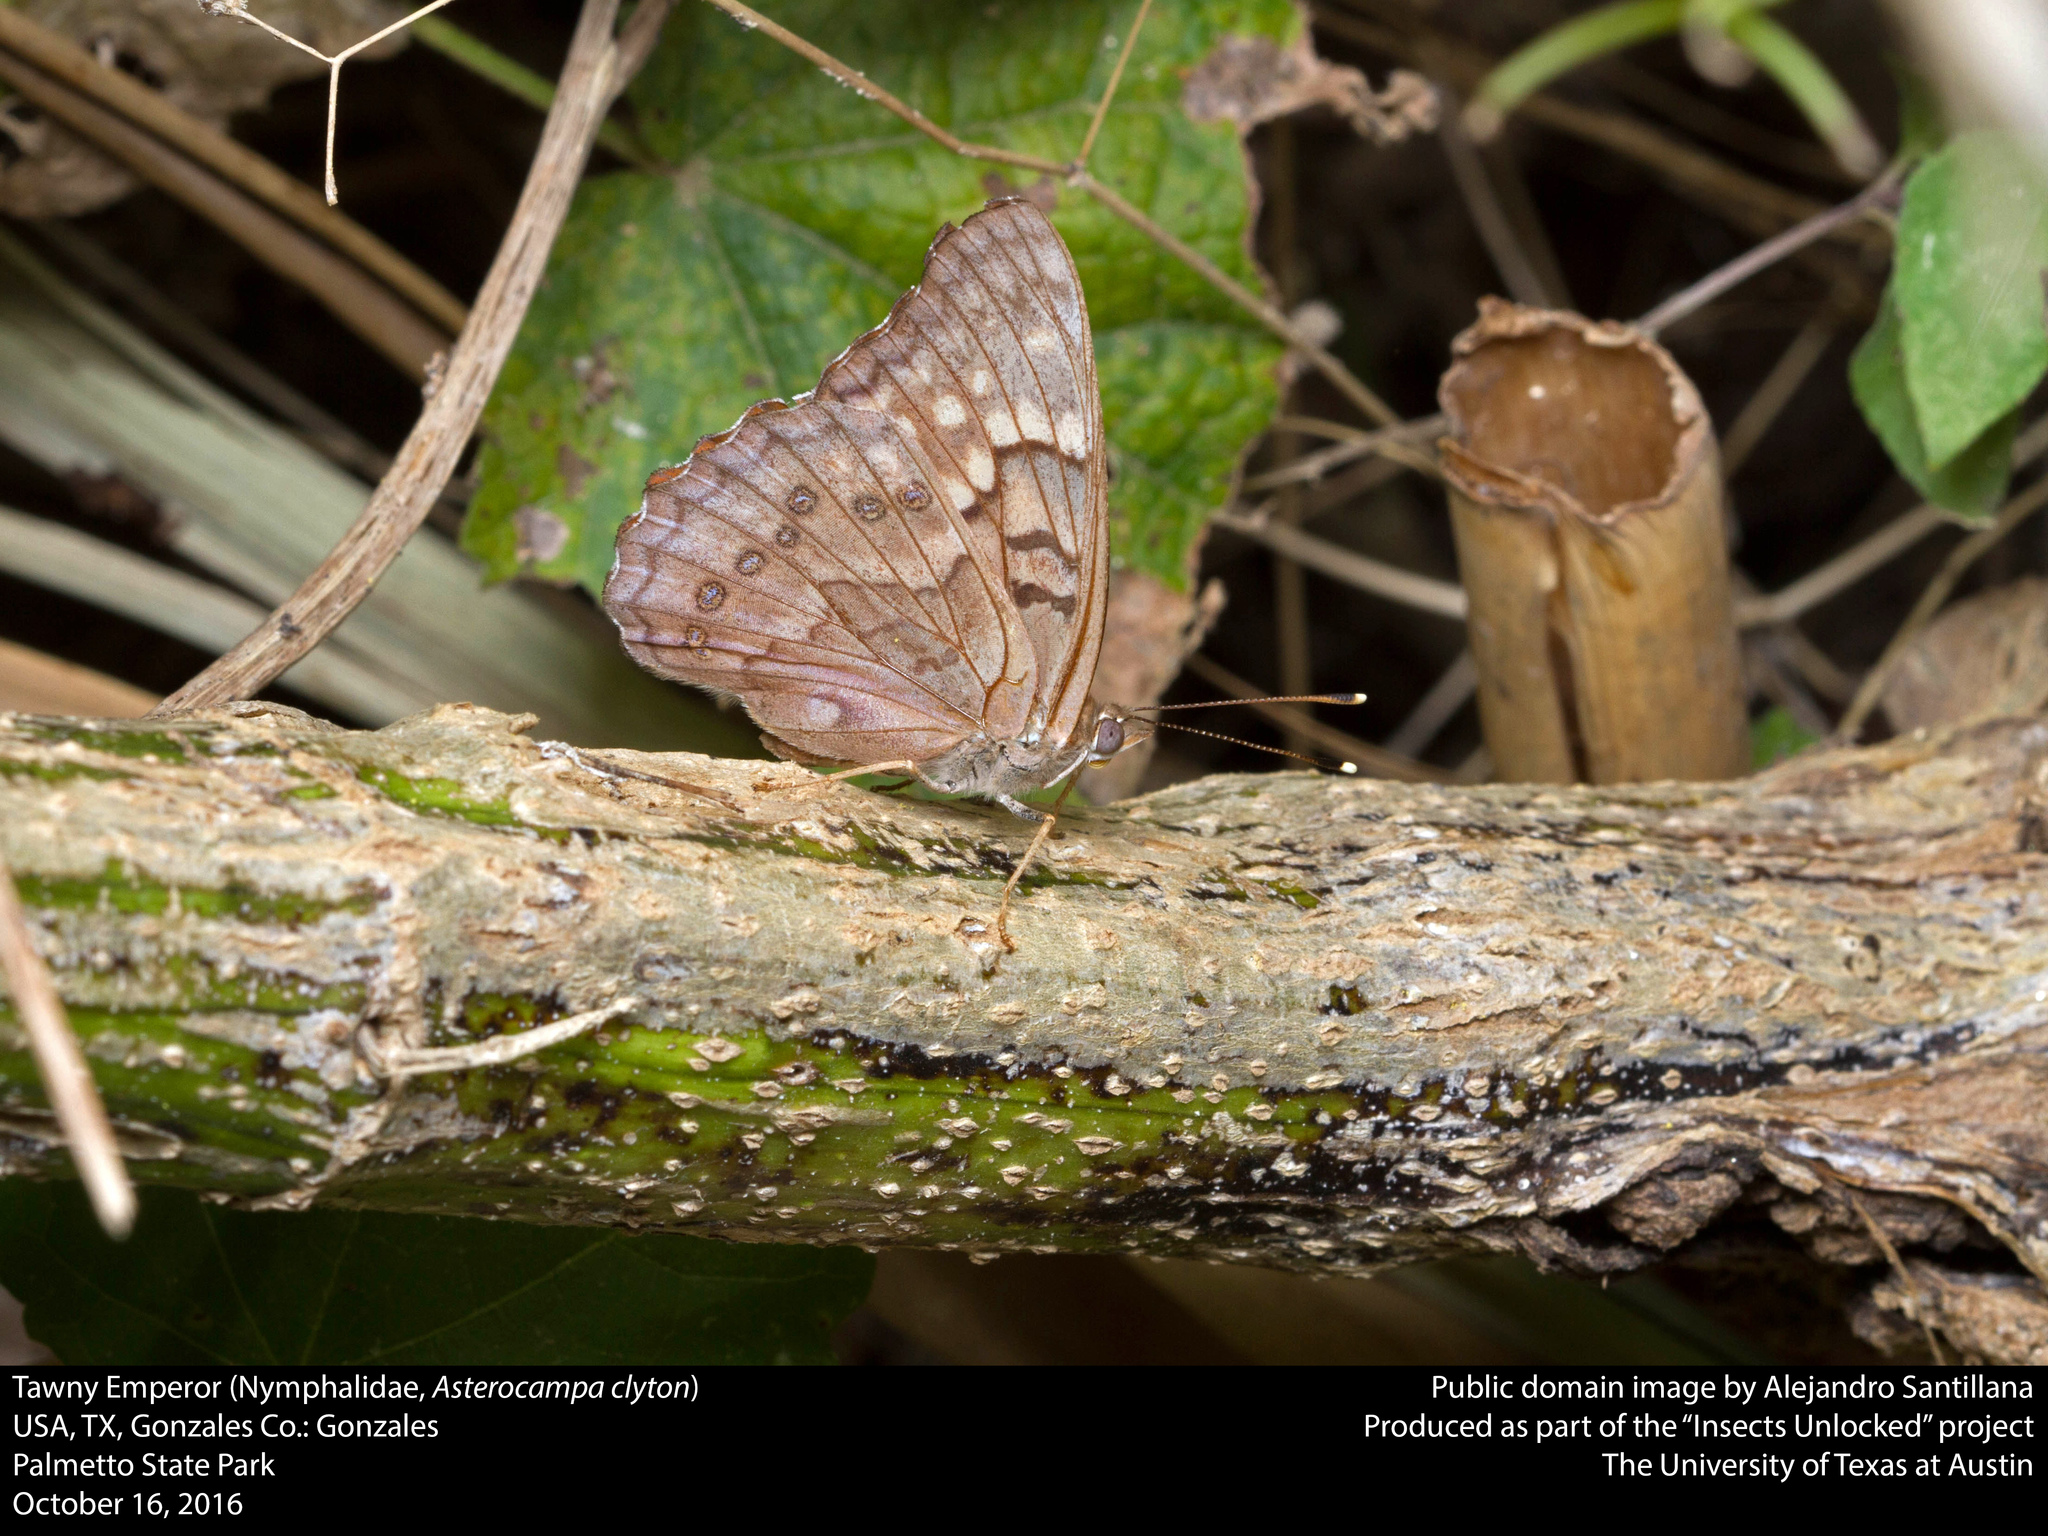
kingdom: Animalia
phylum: Arthropoda
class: Insecta
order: Lepidoptera
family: Nymphalidae
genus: Asterocampa
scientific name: Asterocampa clyton
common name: Tawny emperor
